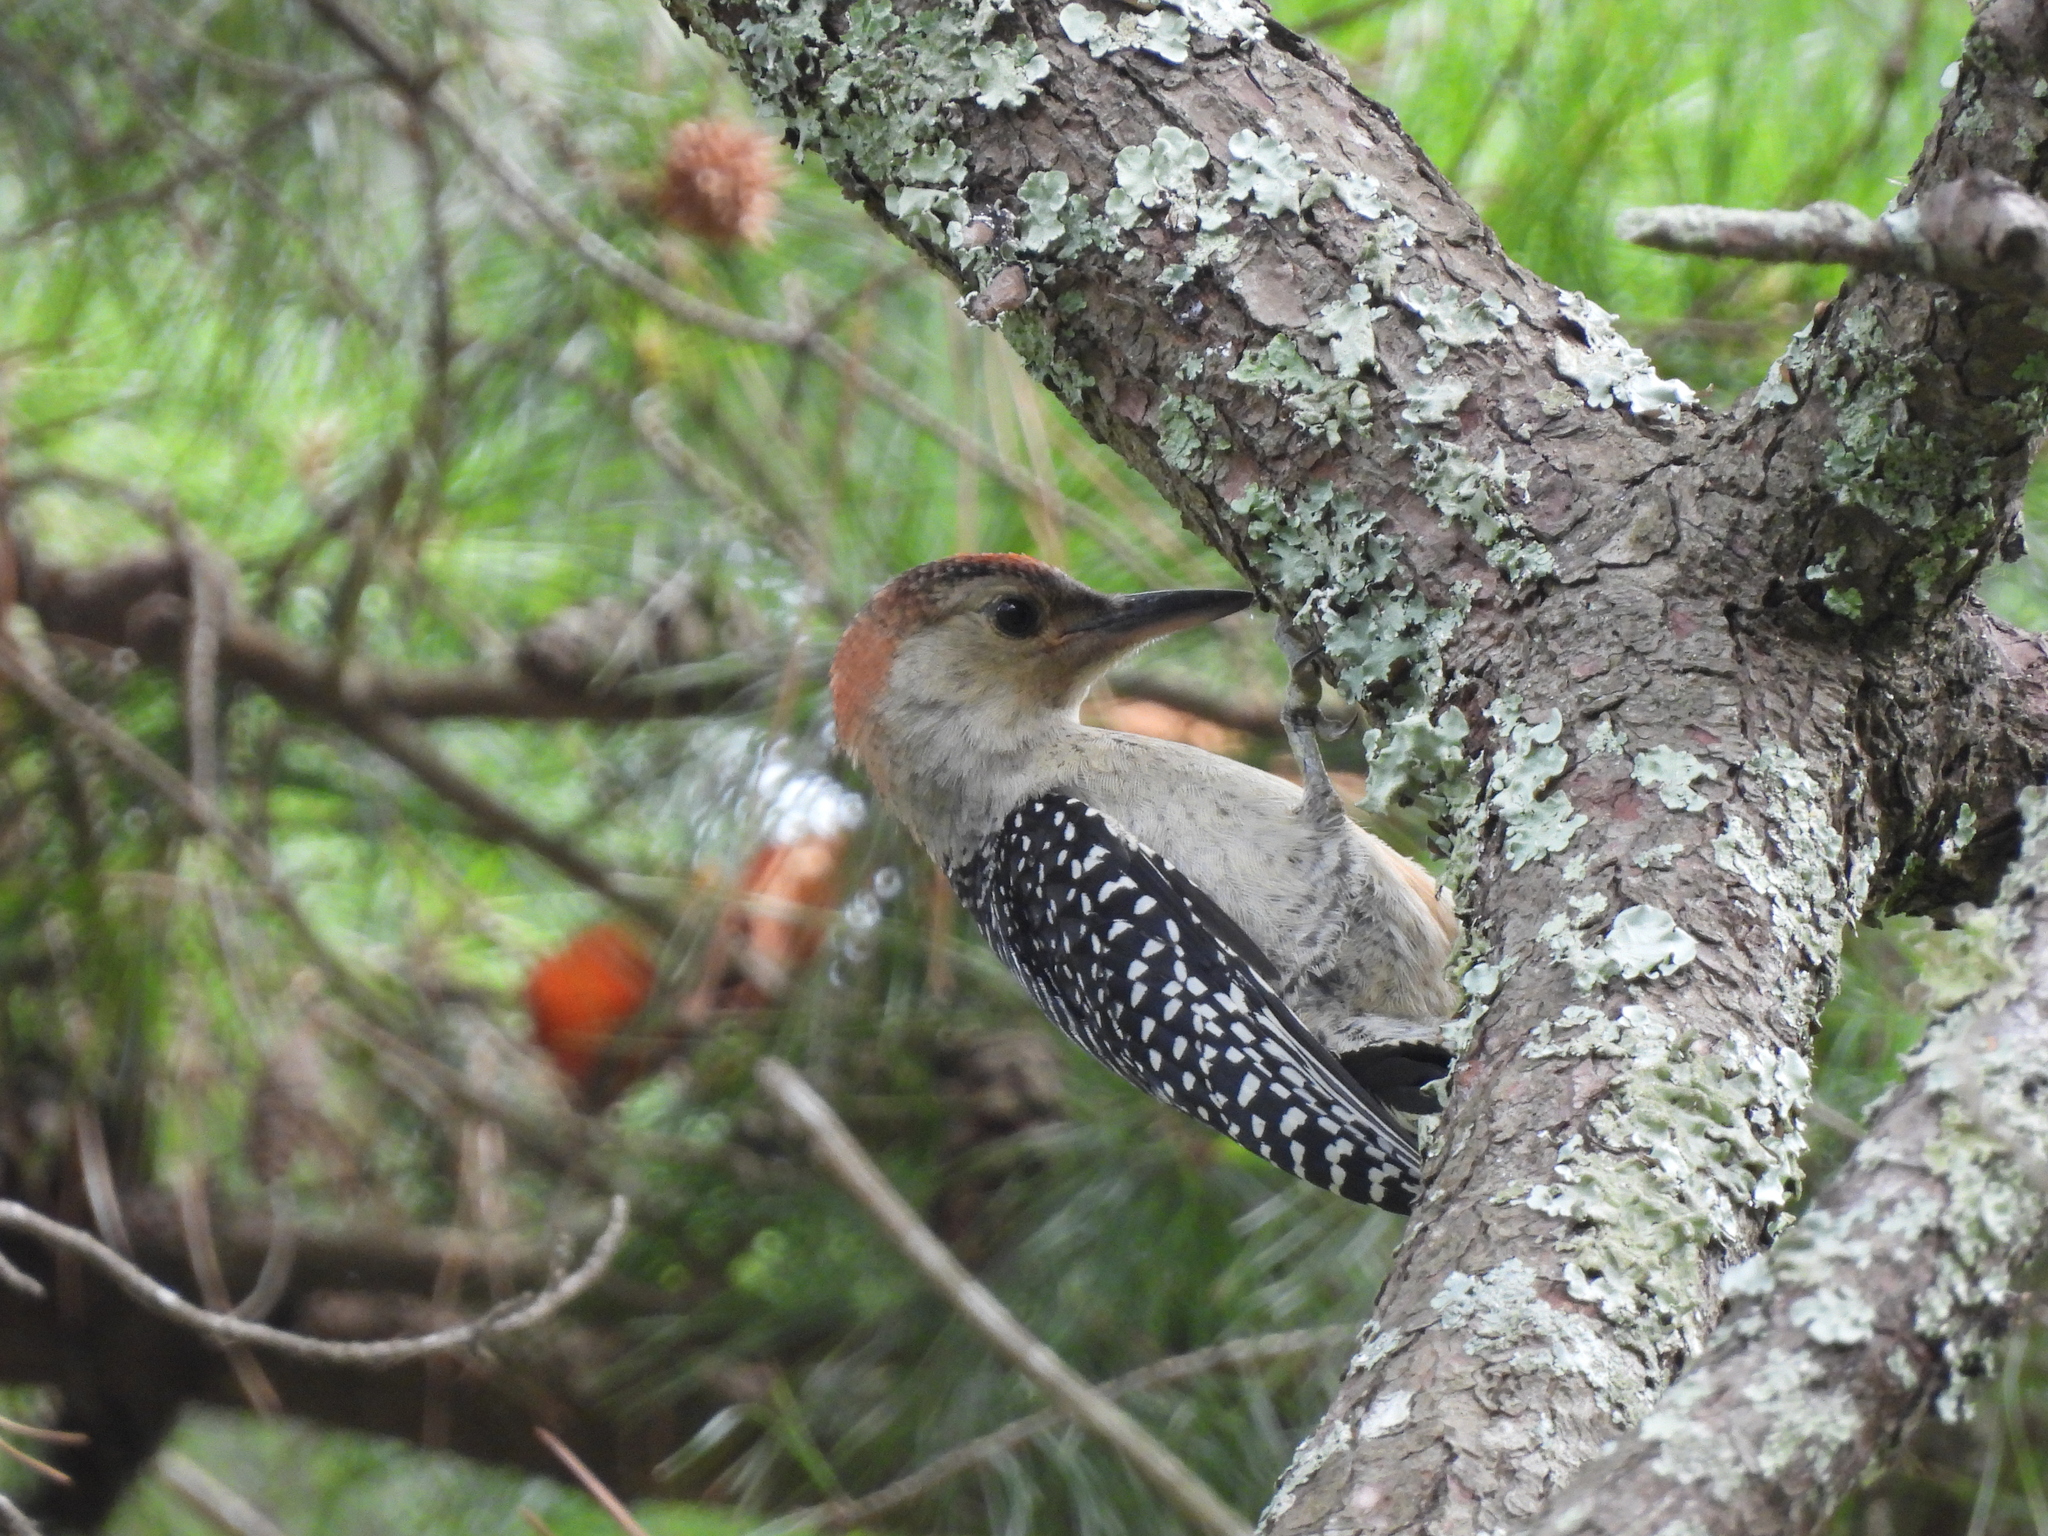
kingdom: Animalia
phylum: Chordata
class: Aves
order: Piciformes
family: Picidae
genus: Melanerpes
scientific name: Melanerpes carolinus
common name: Red-bellied woodpecker
